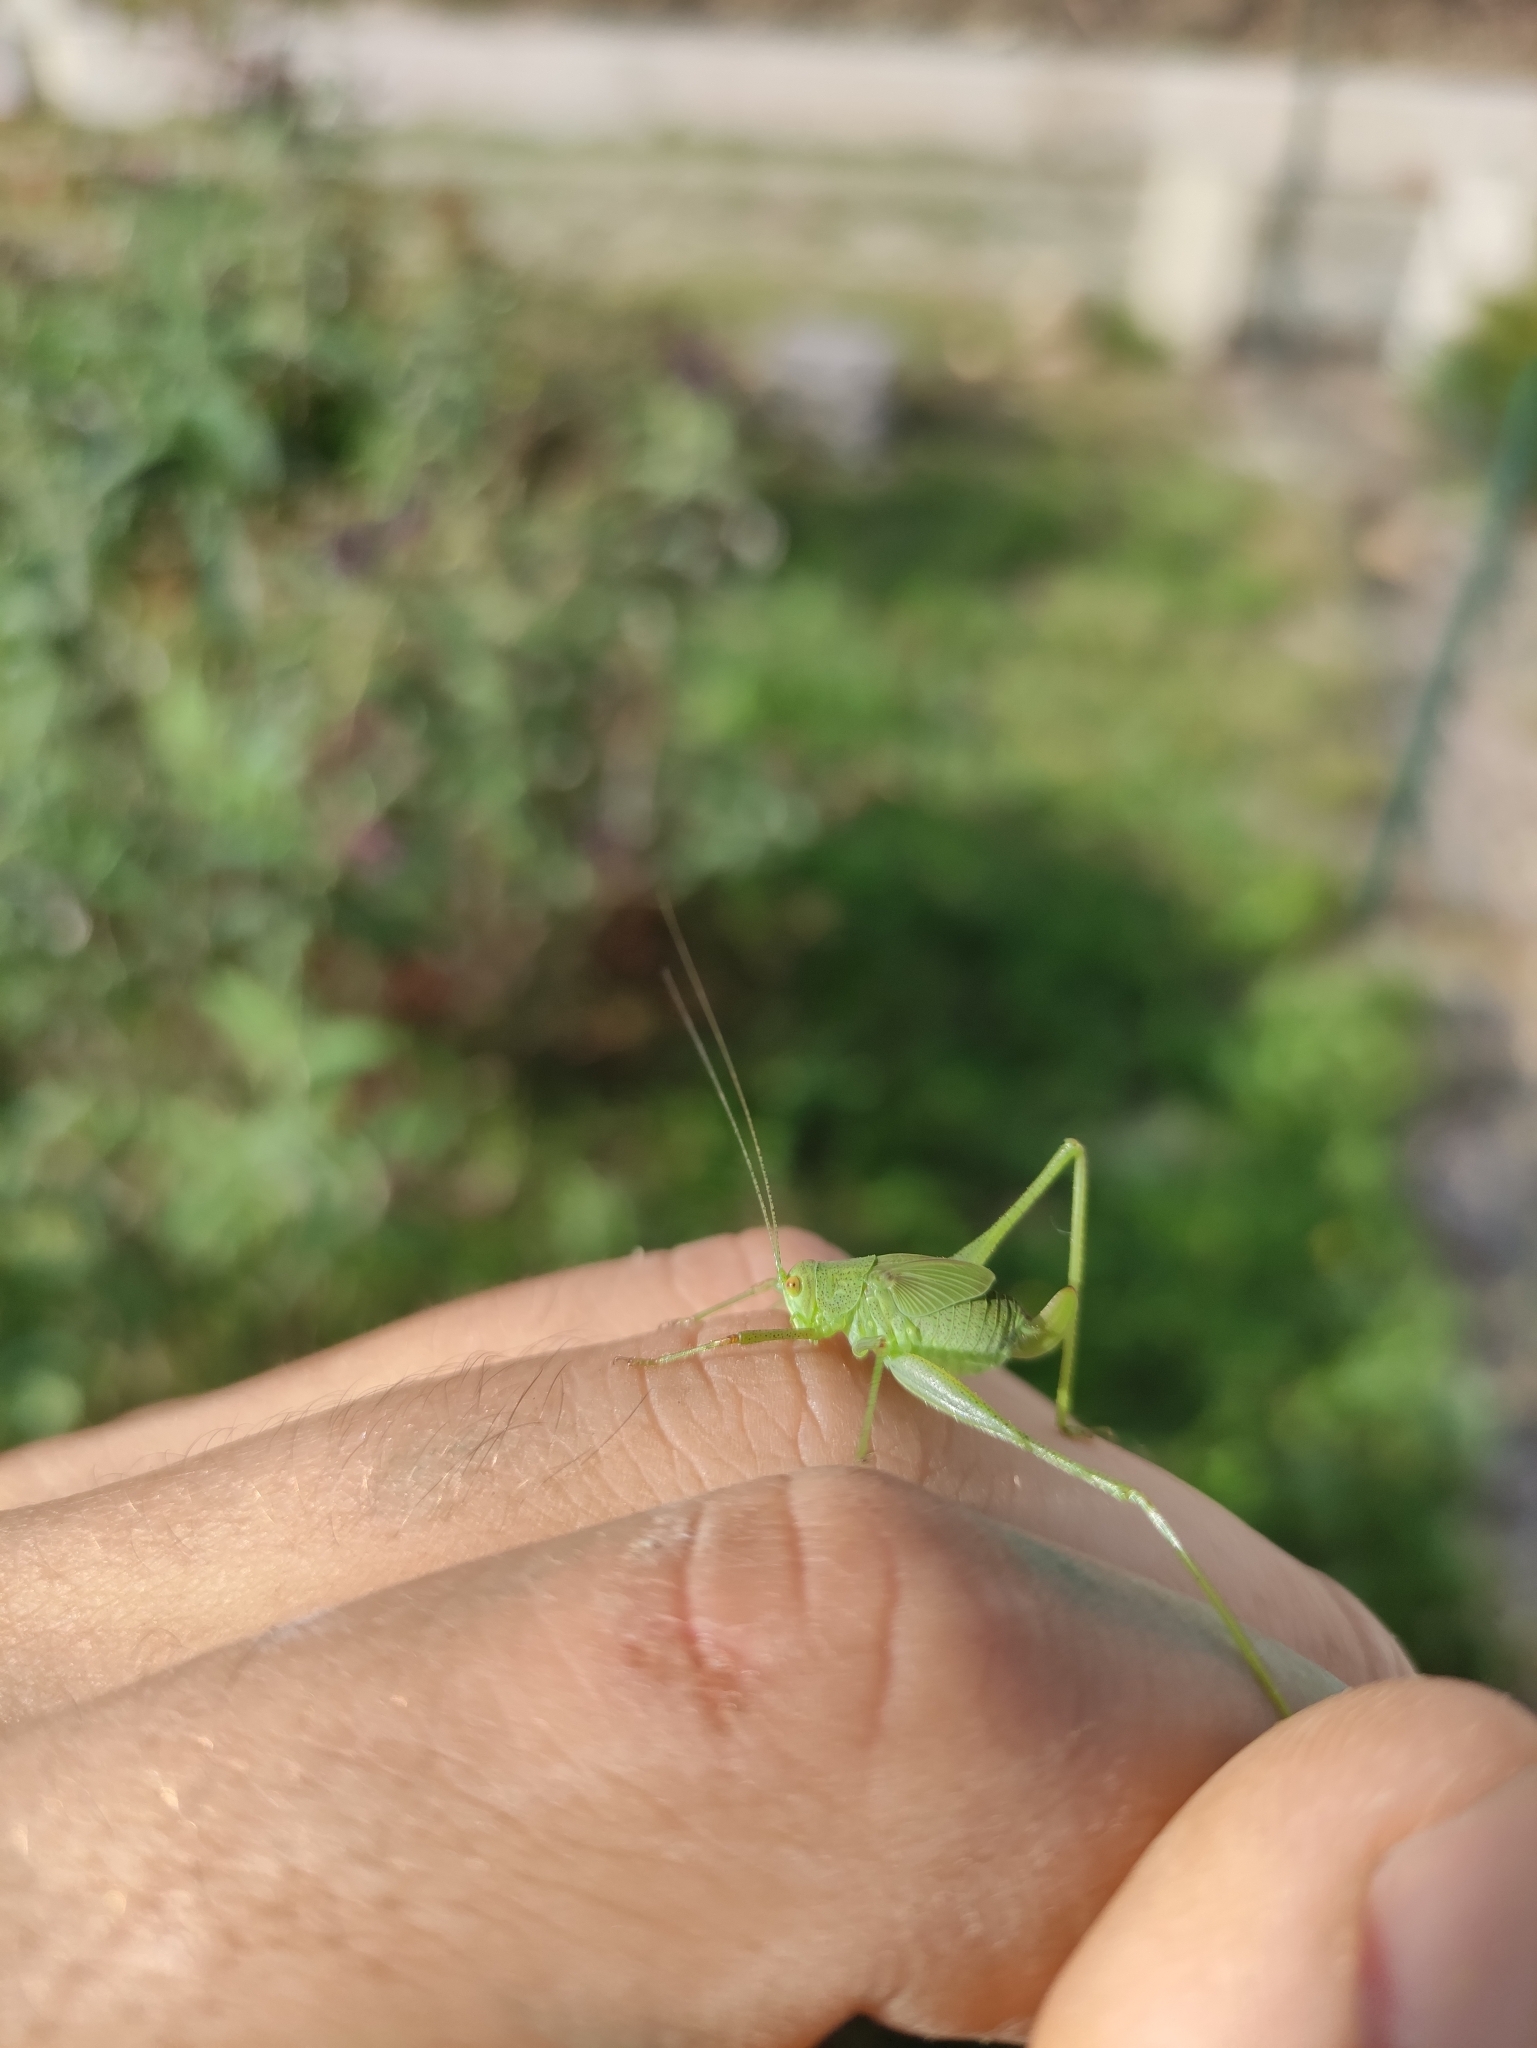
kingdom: Animalia
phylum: Arthropoda
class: Insecta
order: Orthoptera
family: Tettigoniidae
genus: Phaneroptera
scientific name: Phaneroptera nana
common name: Southern sickle bush-cricket
